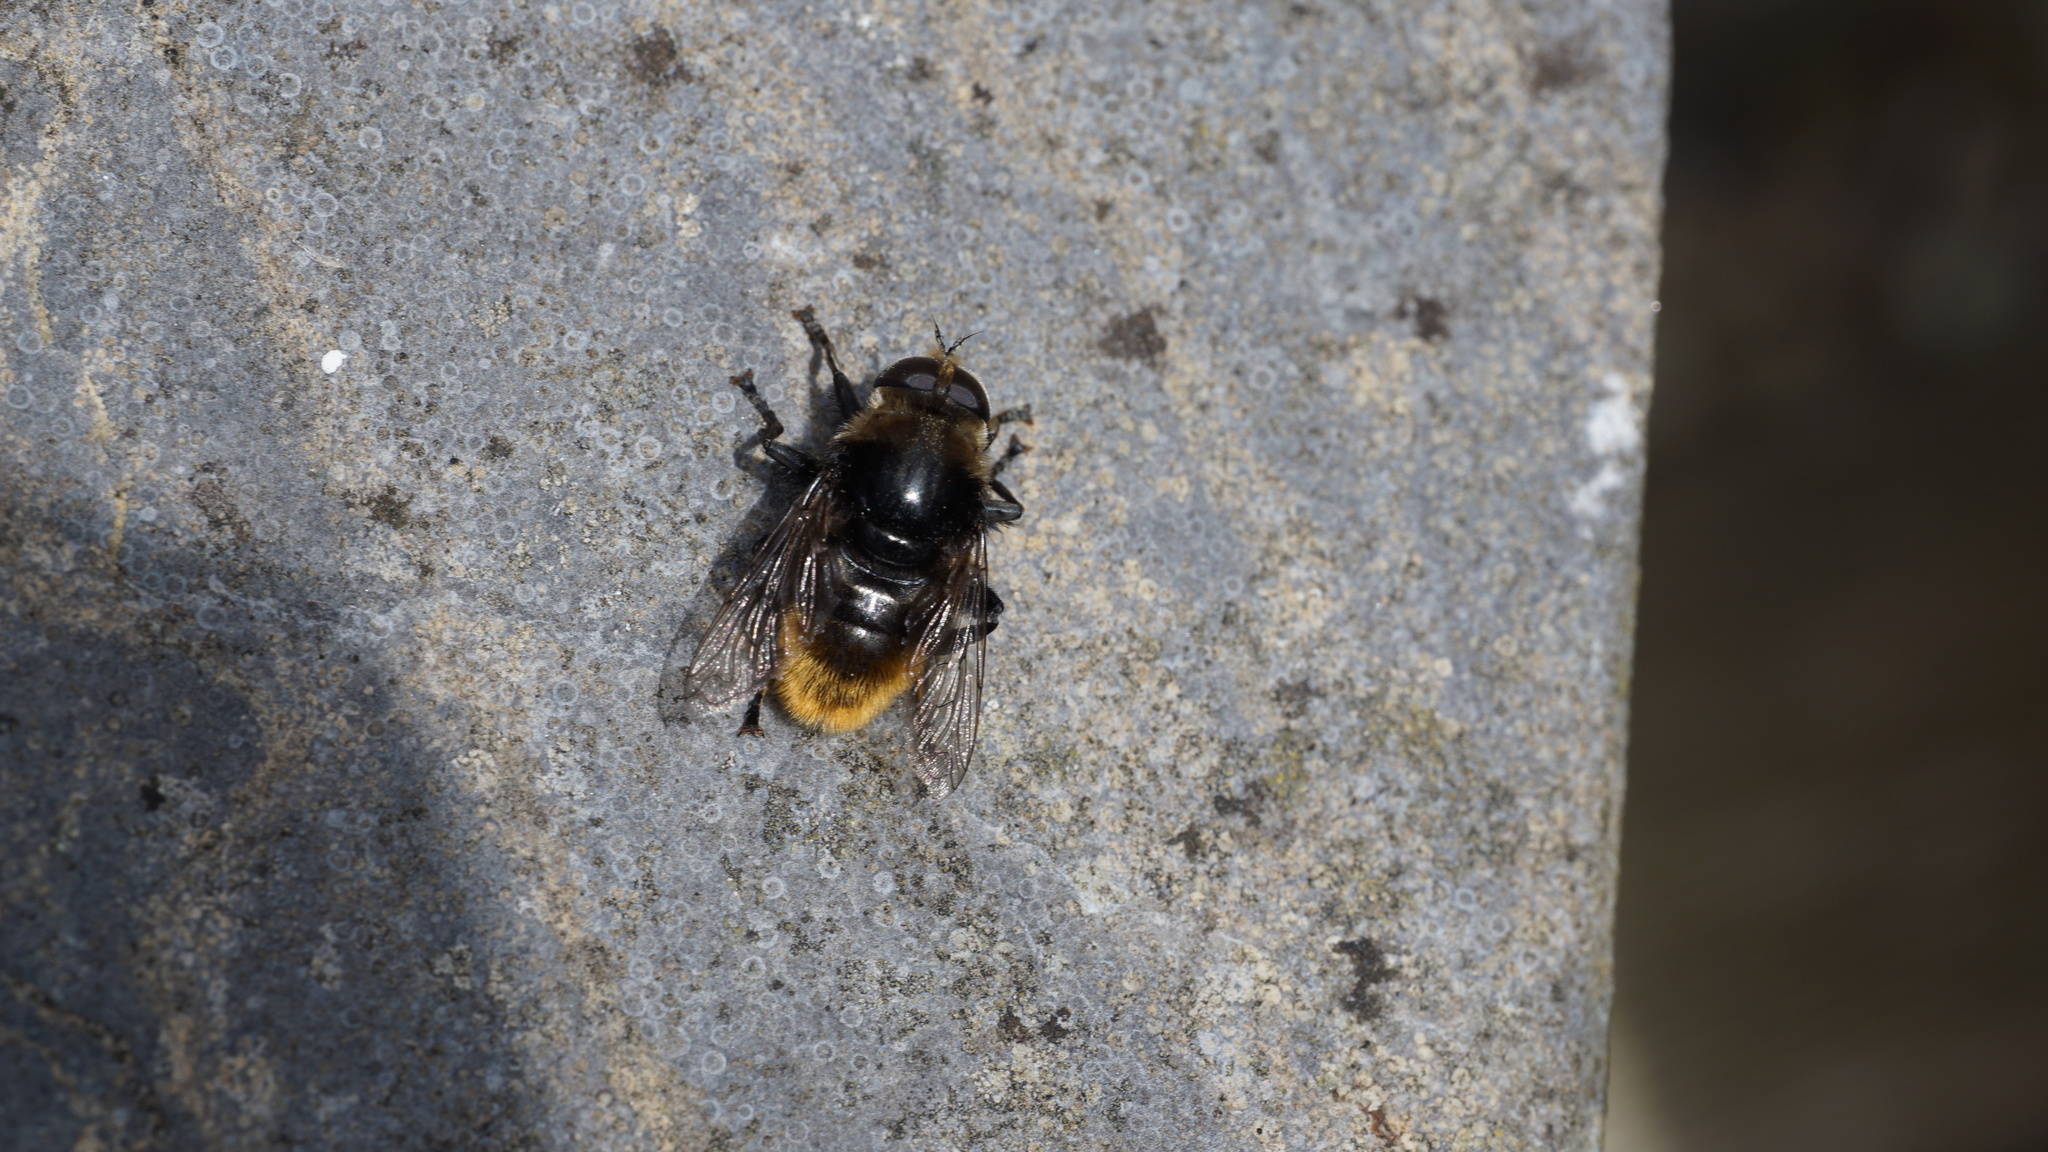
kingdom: Animalia
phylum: Arthropoda
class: Insecta
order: Diptera
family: Syrphidae
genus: Merodon
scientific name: Merodon equestris
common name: Greater bulb-fly
